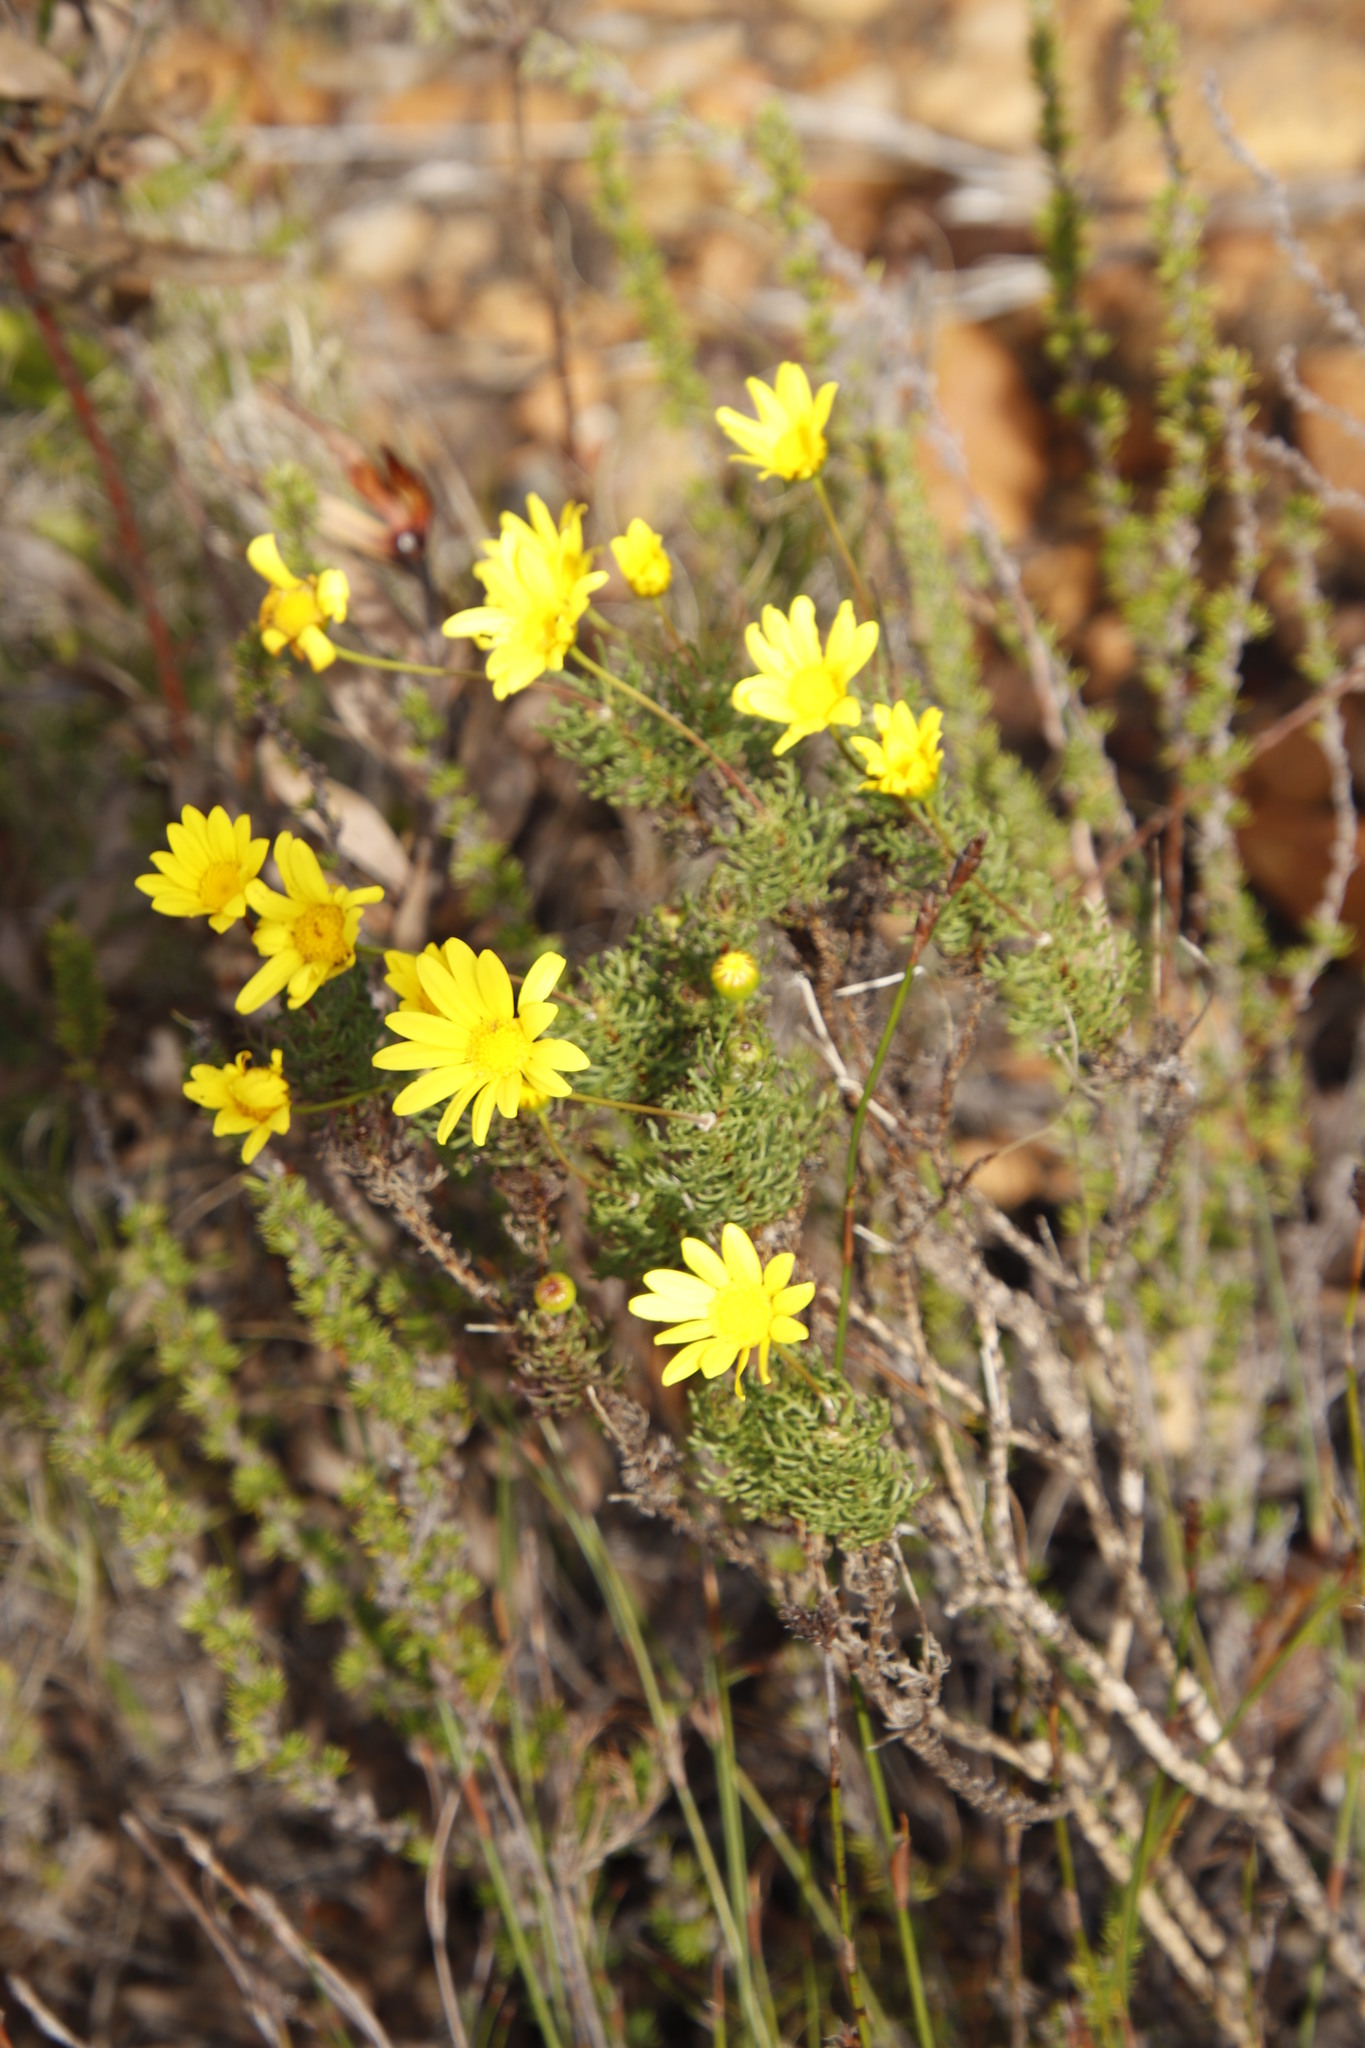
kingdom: Plantae
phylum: Tracheophyta
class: Magnoliopsida
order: Asterales
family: Asteraceae
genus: Euryops
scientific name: Euryops abrotanifolius
